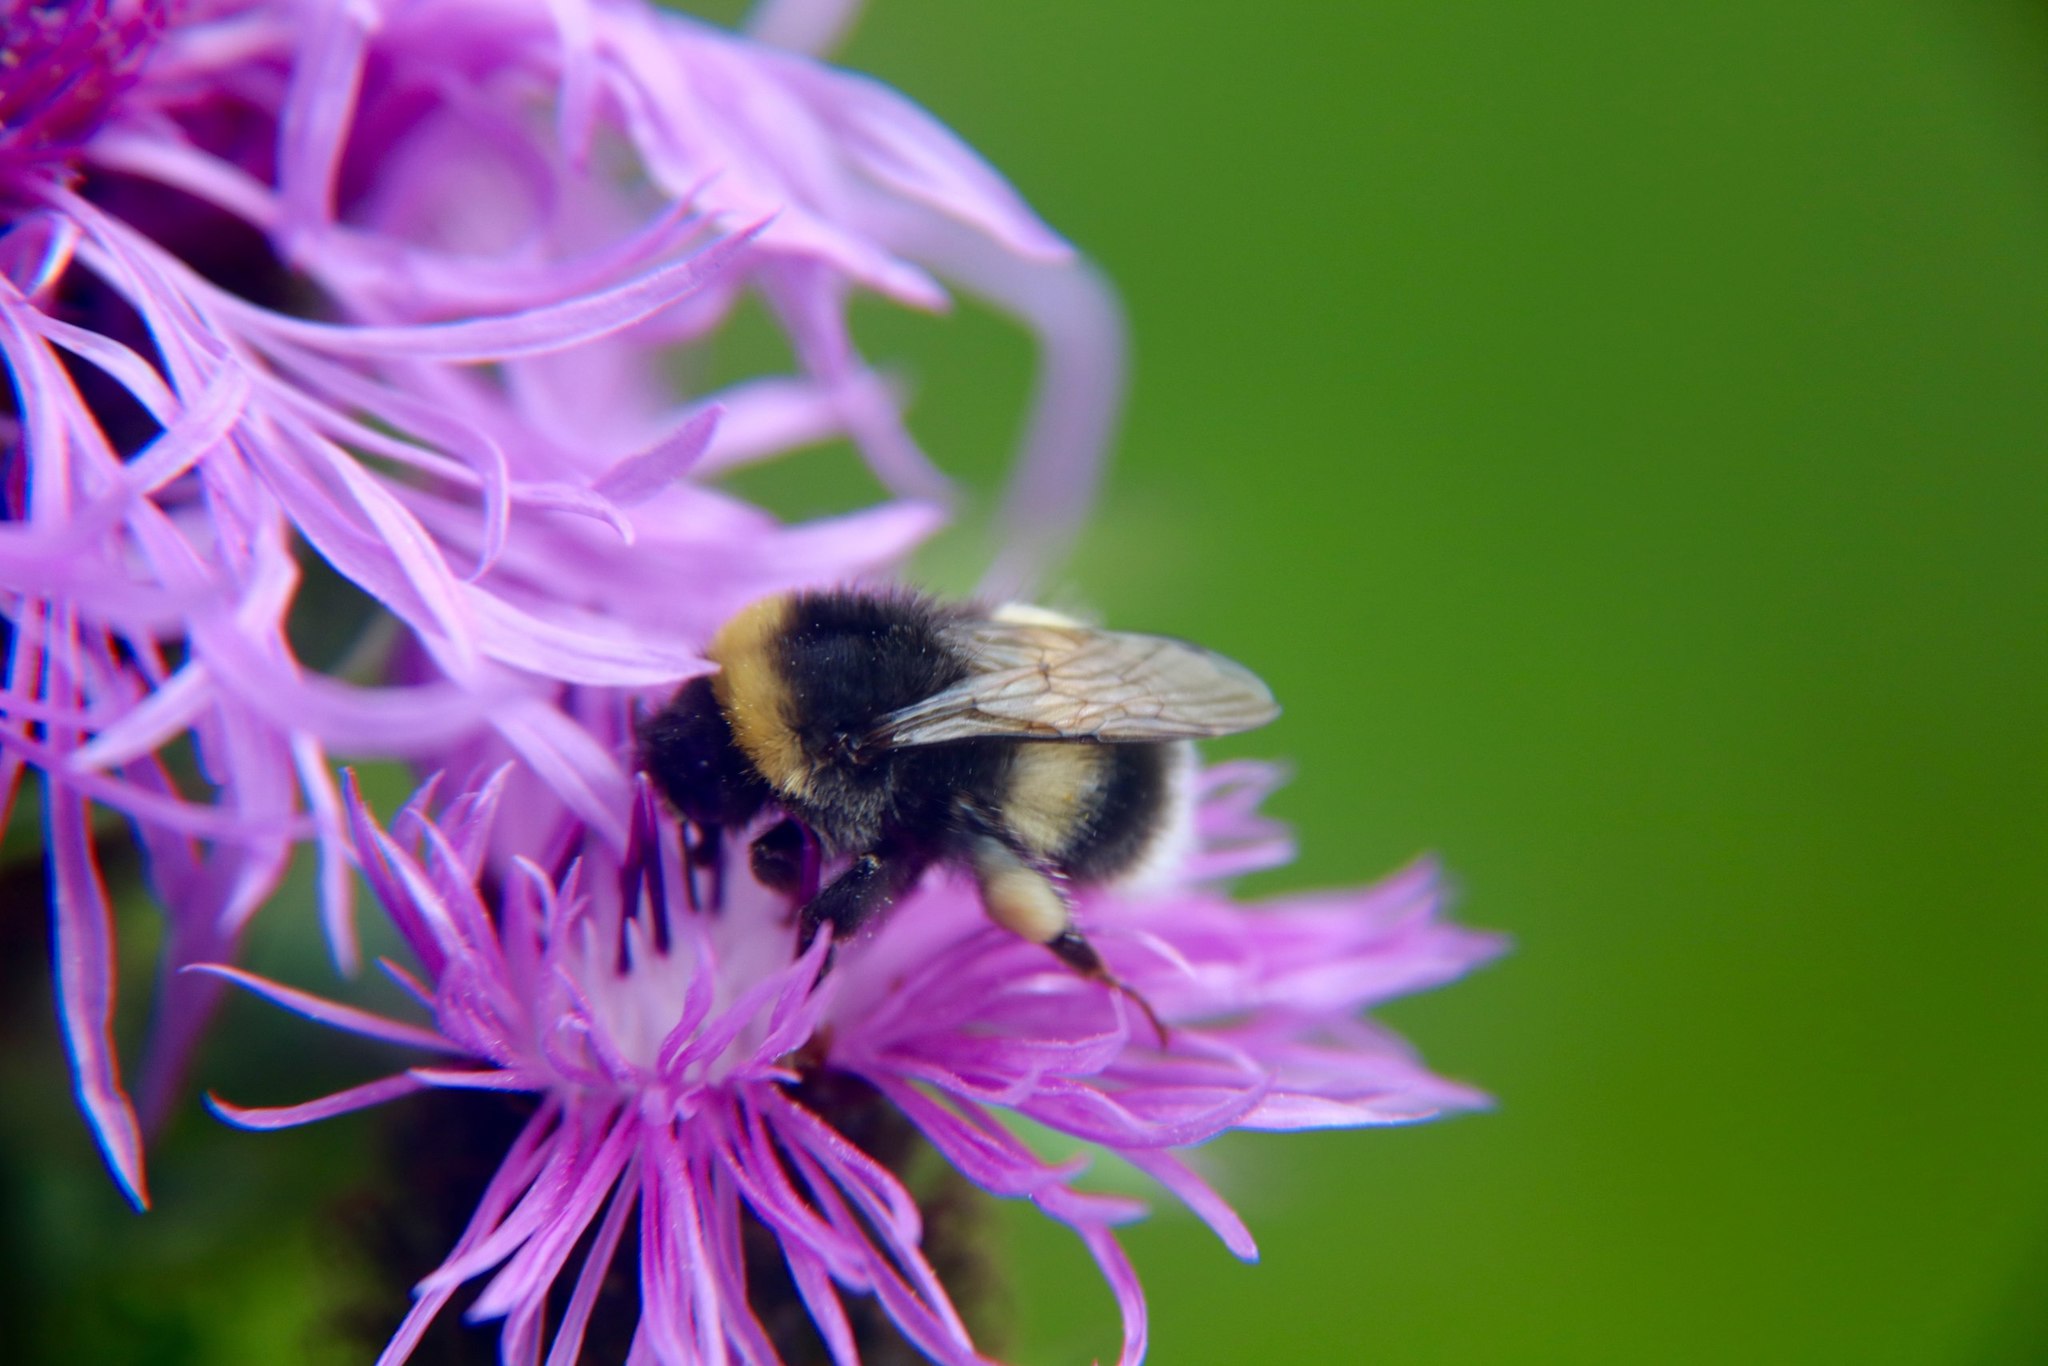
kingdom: Animalia
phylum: Arthropoda
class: Insecta
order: Hymenoptera
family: Apidae
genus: Bombus
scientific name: Bombus lucorum
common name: White-tailed bumblebee
